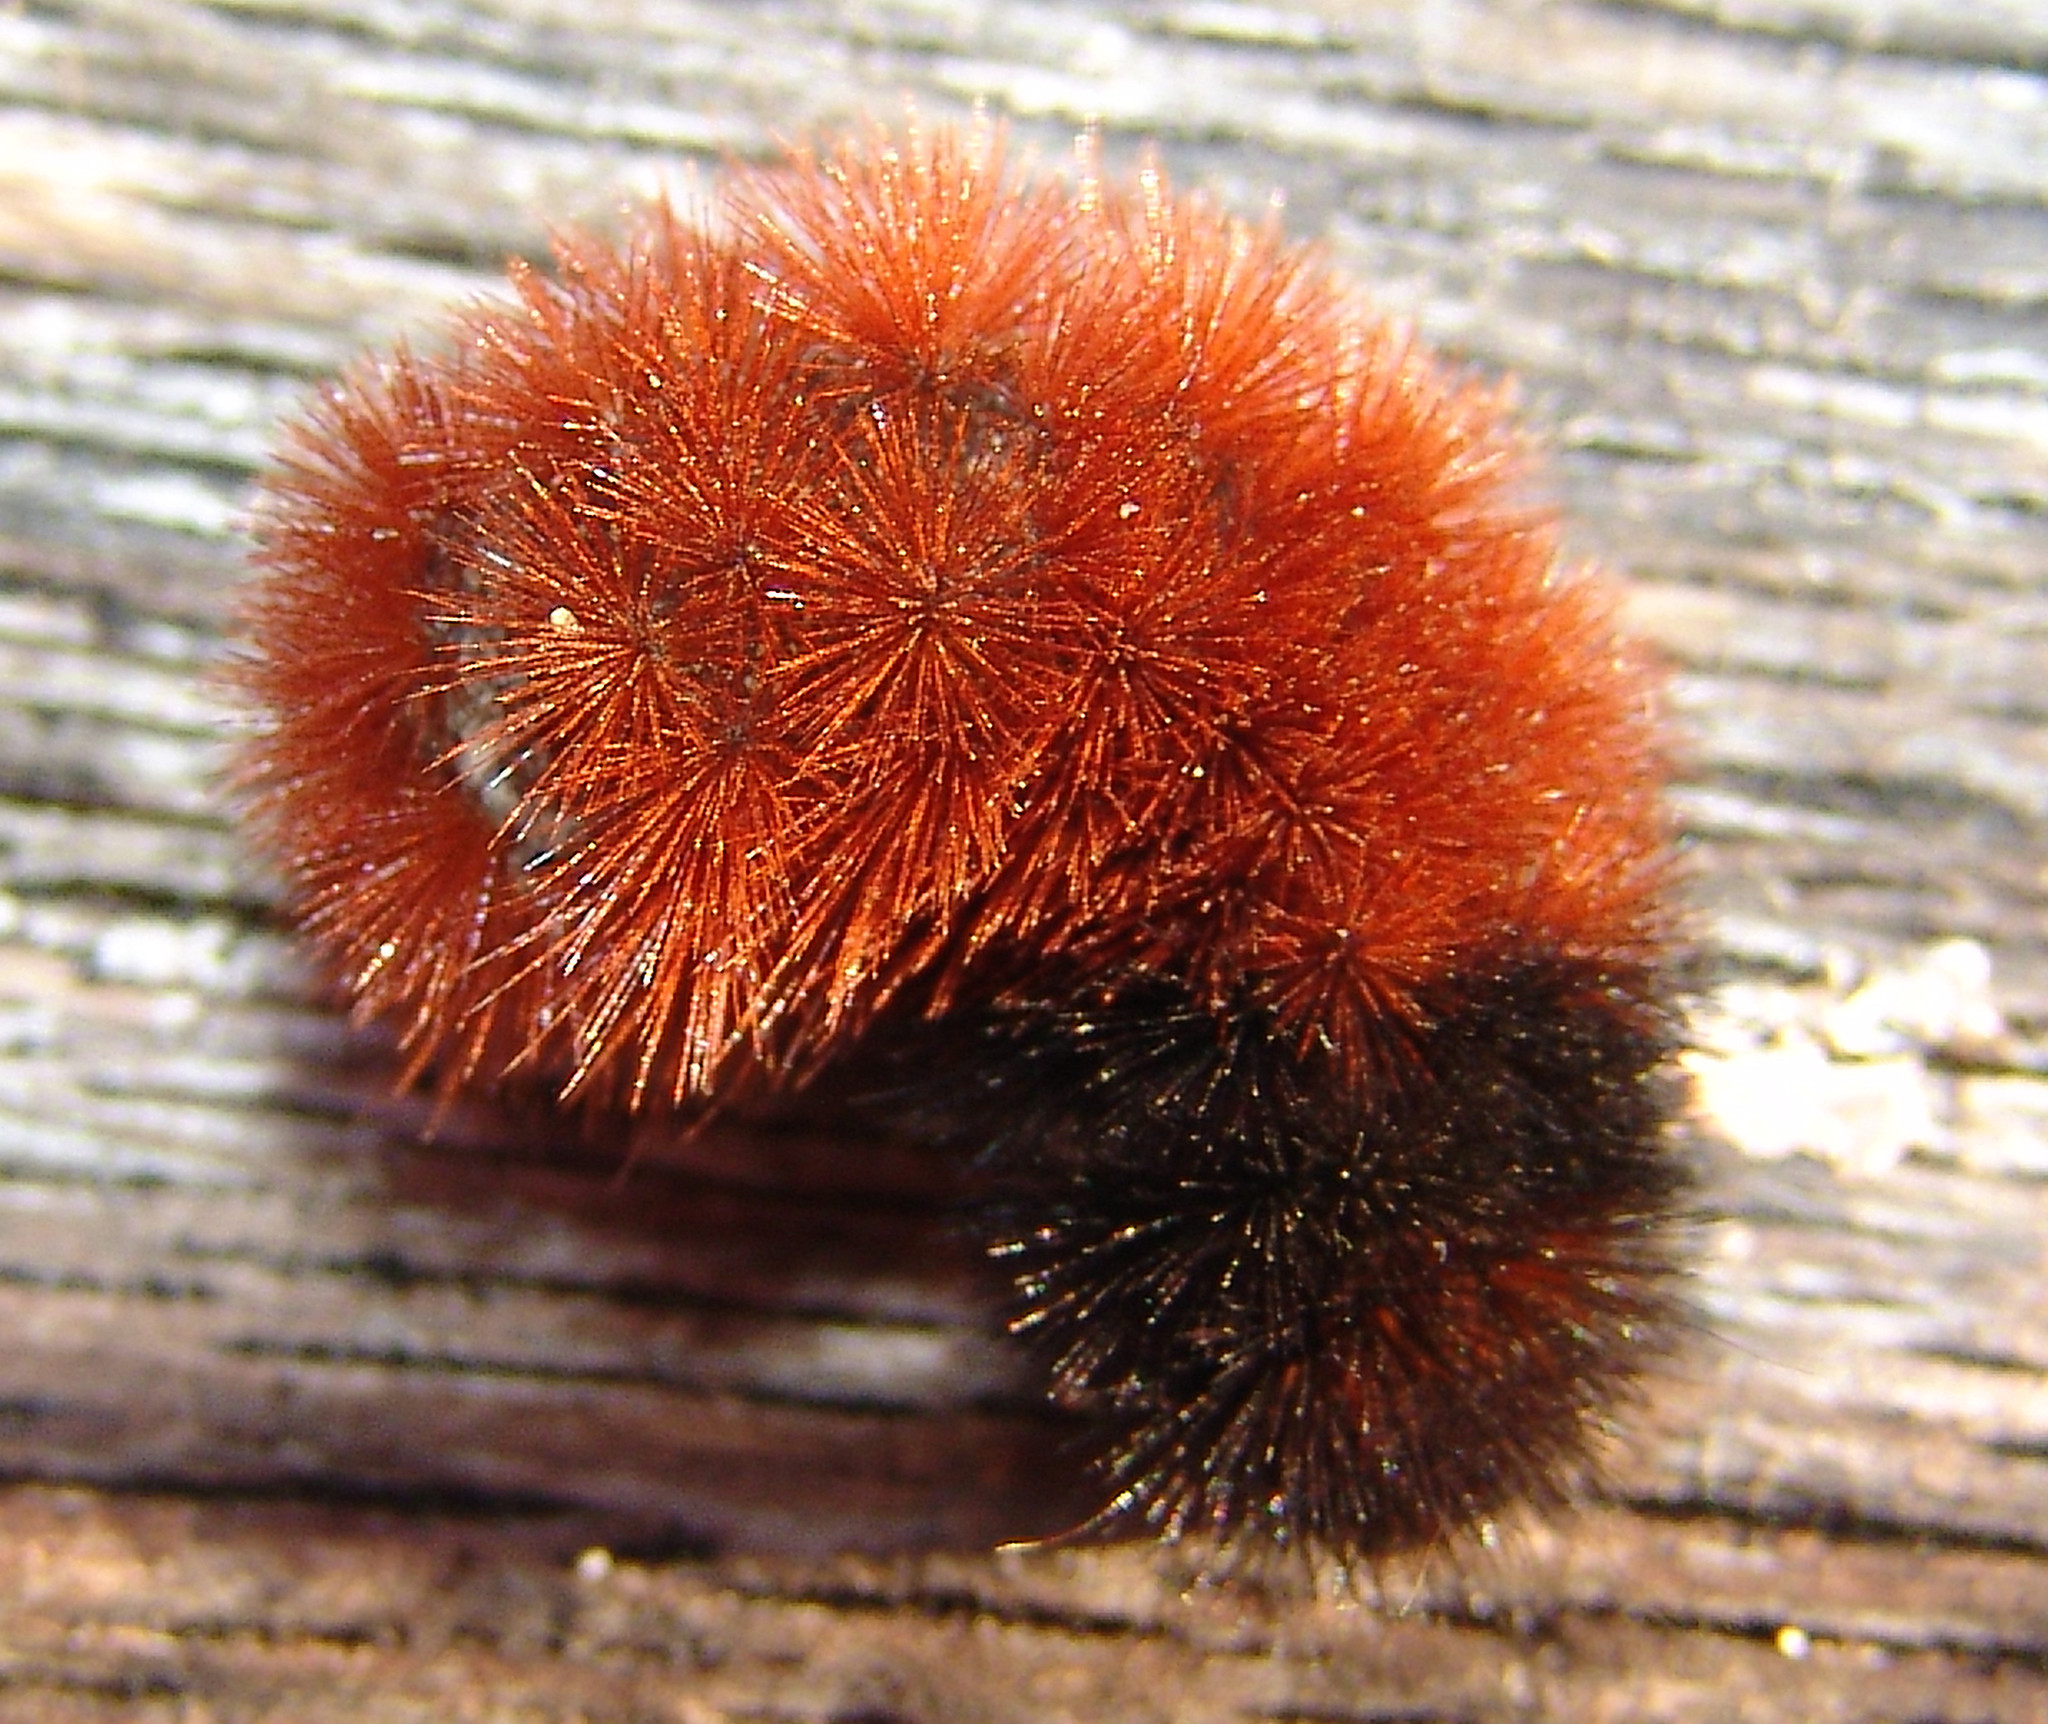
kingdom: Animalia
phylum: Arthropoda
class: Insecta
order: Lepidoptera
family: Erebidae
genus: Pyrrharctia
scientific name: Pyrrharctia isabella
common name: Isabella tiger moth
